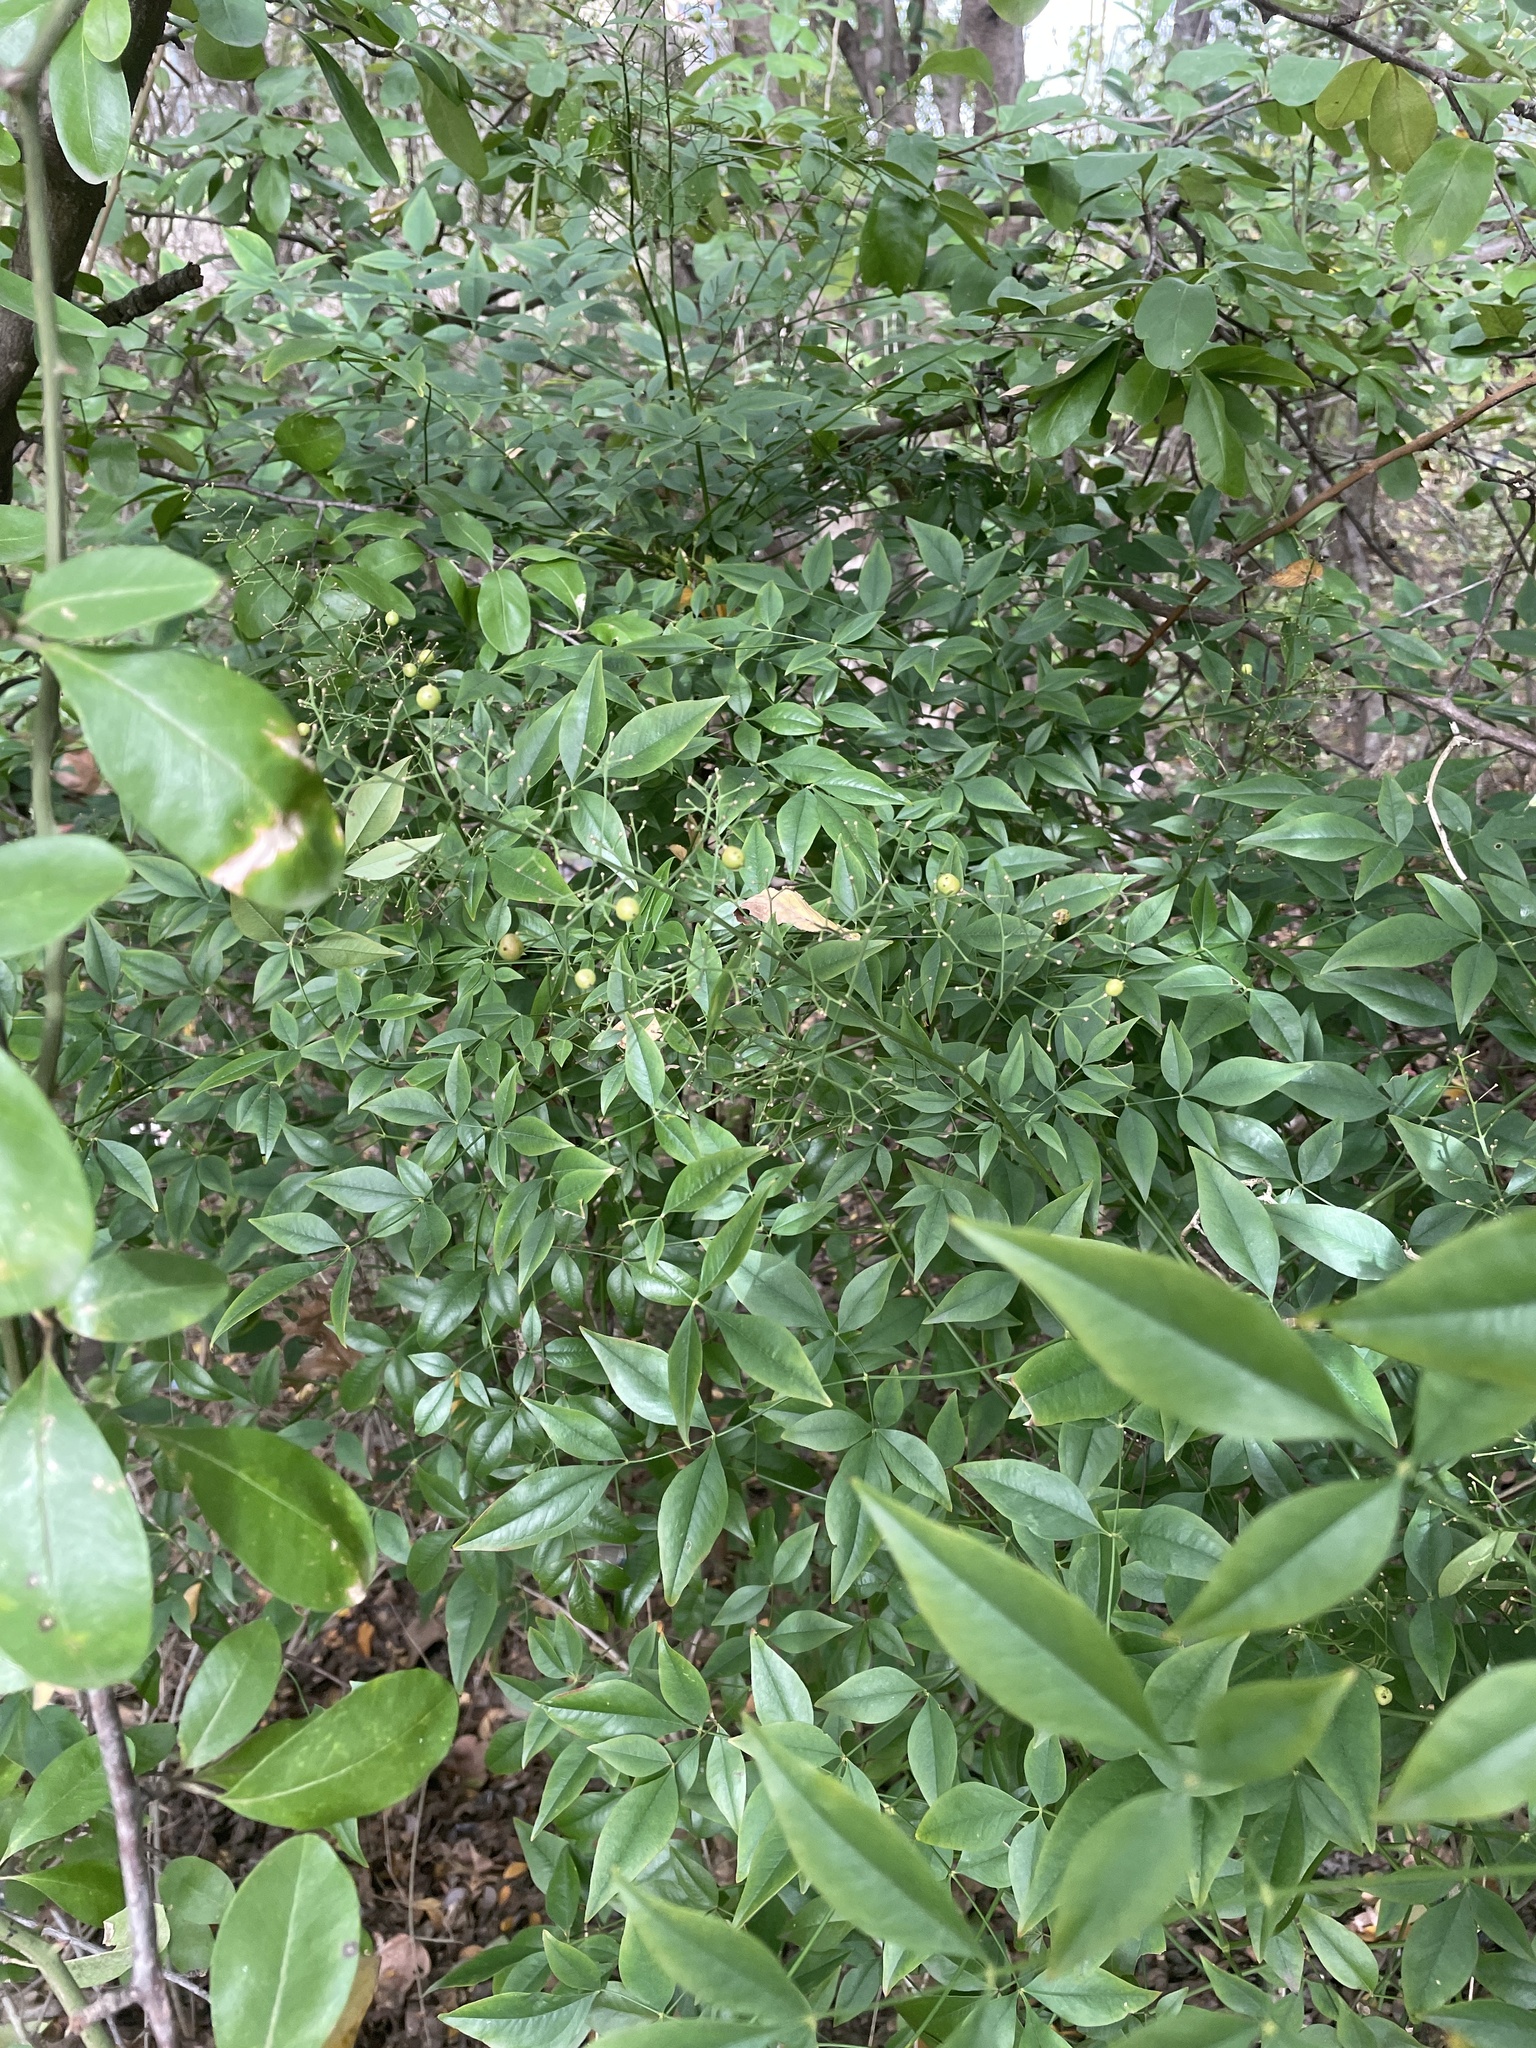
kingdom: Plantae
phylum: Tracheophyta
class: Magnoliopsida
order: Ranunculales
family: Berberidaceae
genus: Nandina
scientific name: Nandina domestica
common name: Sacred bamboo
